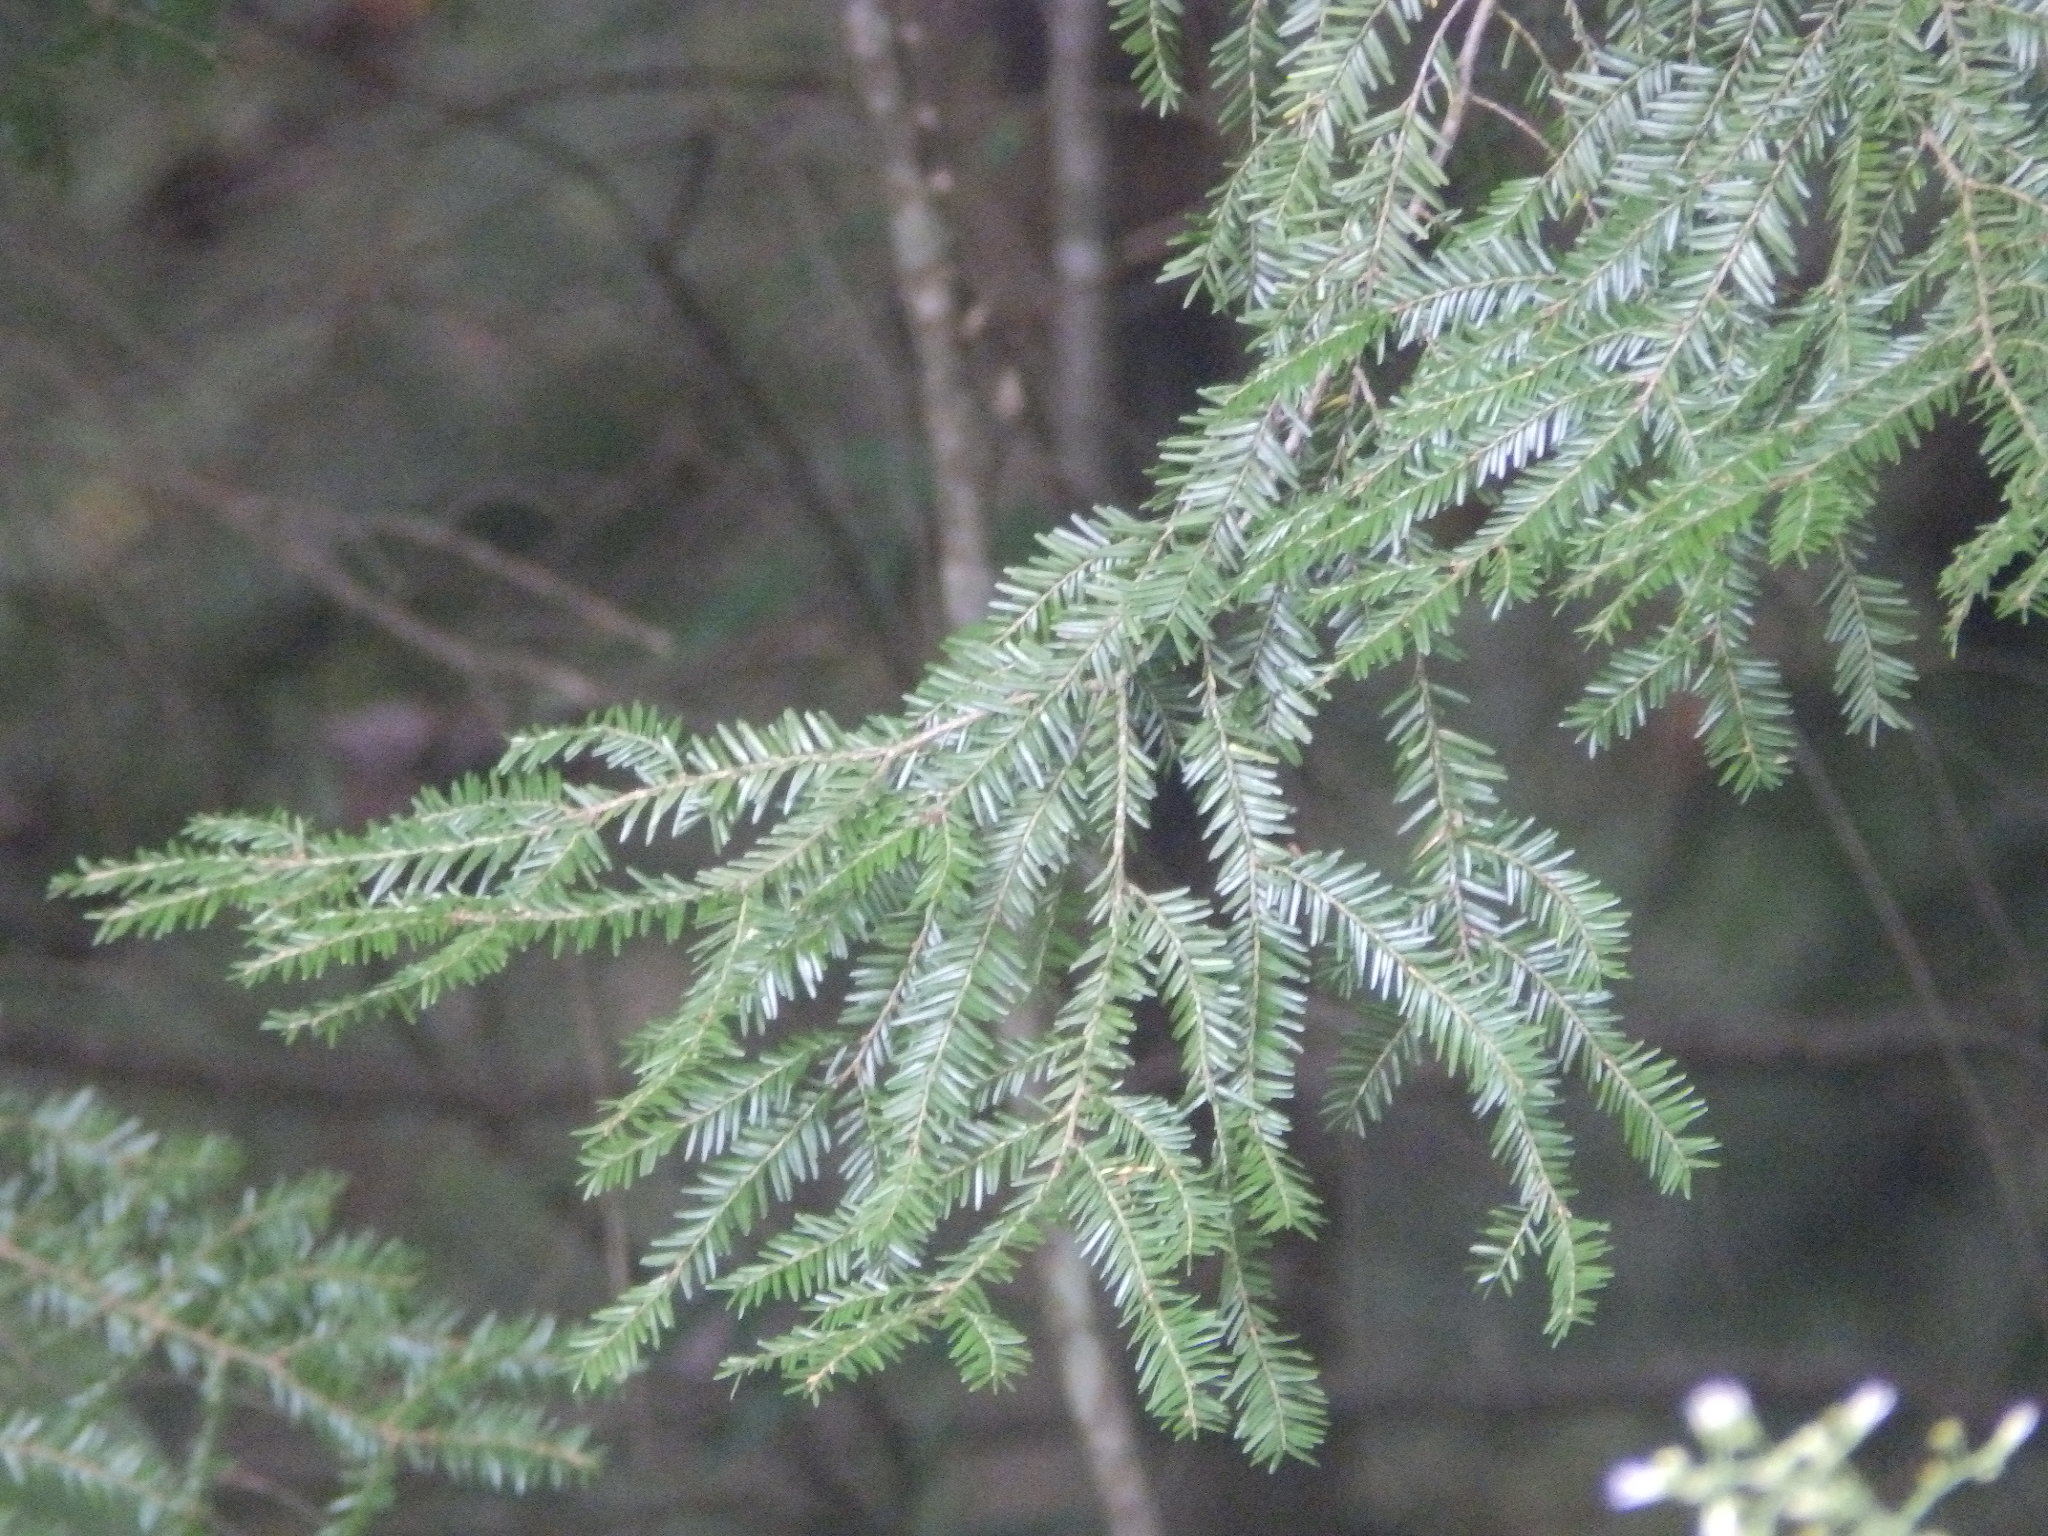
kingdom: Plantae
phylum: Tracheophyta
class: Pinopsida
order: Pinales
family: Pinaceae
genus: Tsuga
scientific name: Tsuga canadensis
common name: Eastern hemlock
